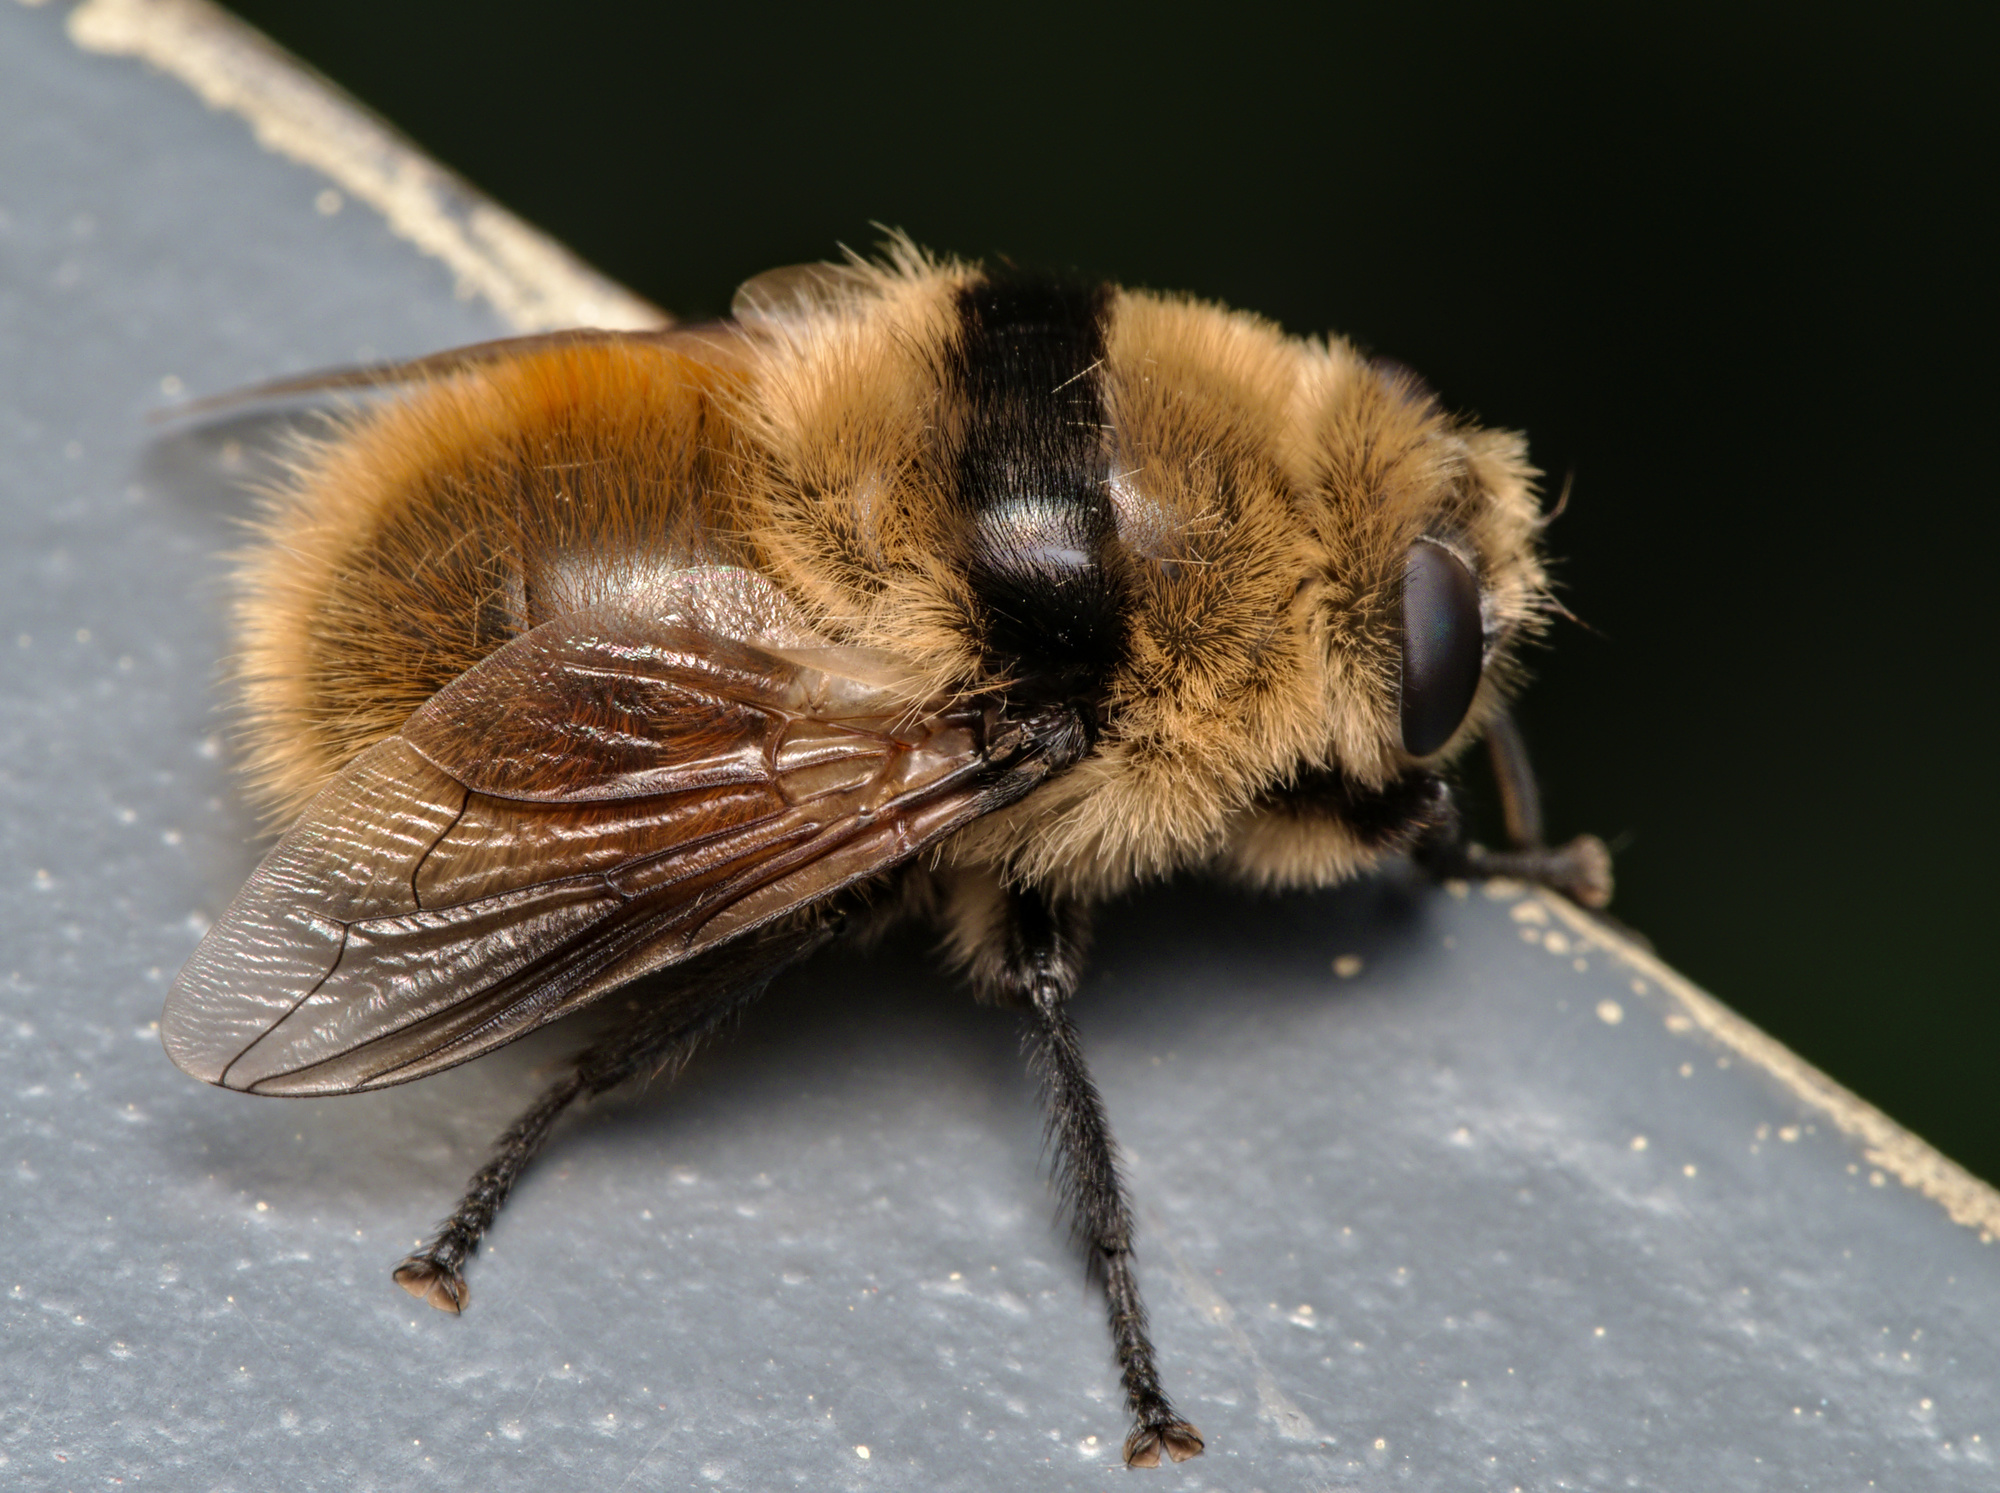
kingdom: Animalia
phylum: Arthropoda
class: Insecta
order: Diptera
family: Oestridae
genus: Cephenemyia
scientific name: Cephenemyia stimulator
